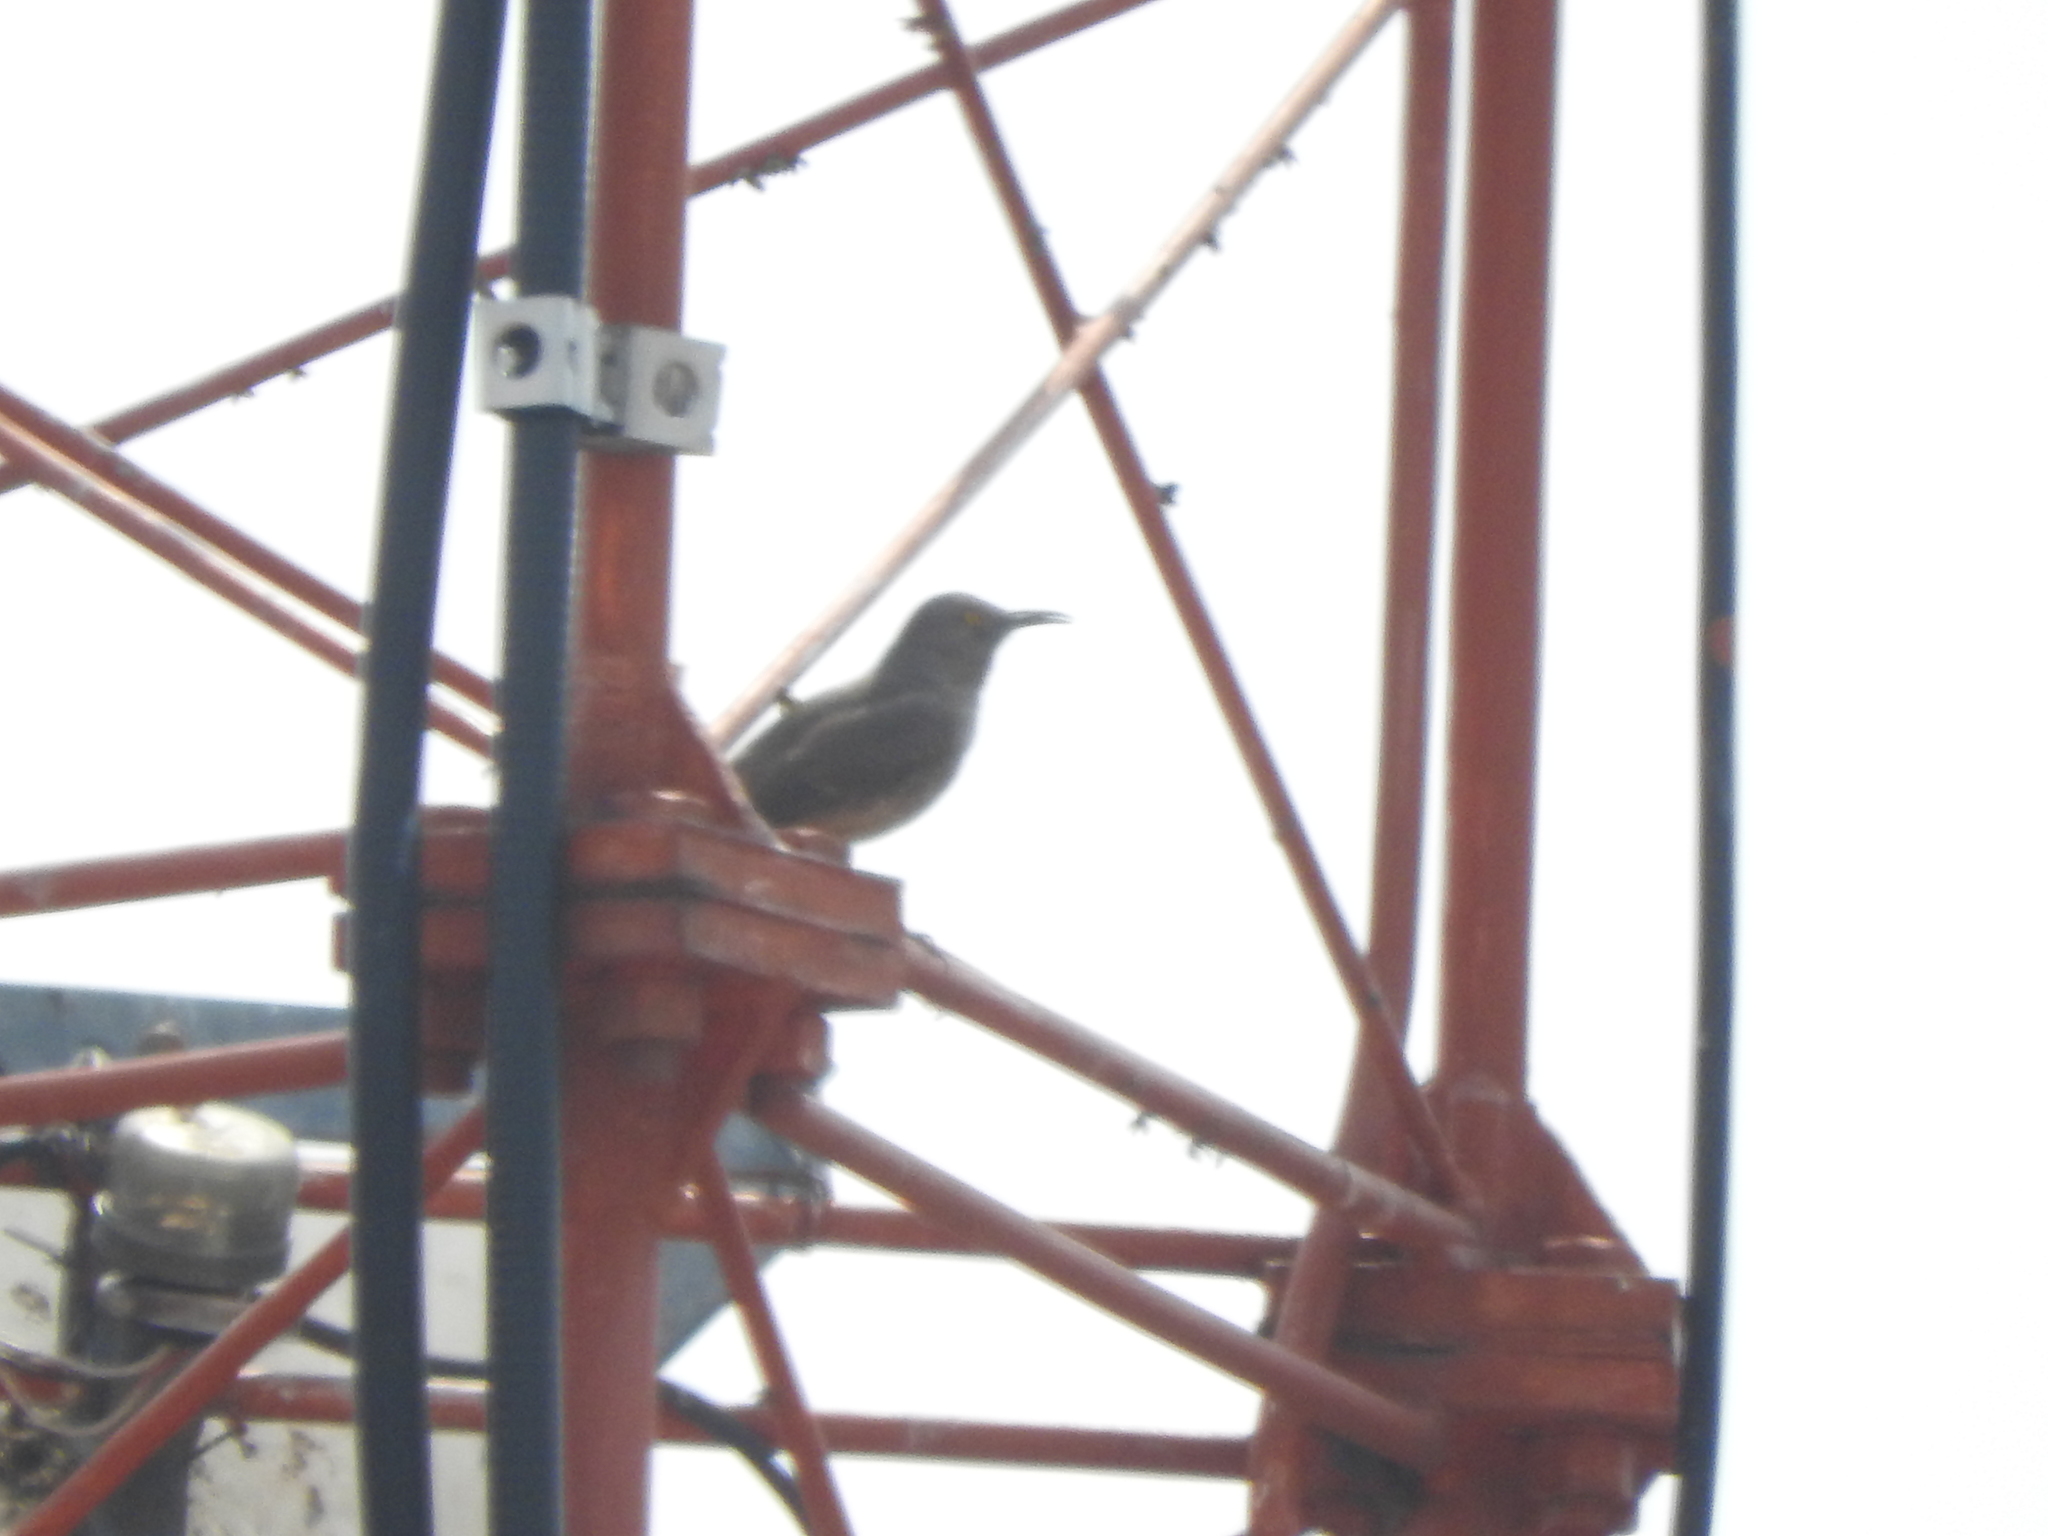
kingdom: Animalia
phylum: Chordata
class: Aves
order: Passeriformes
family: Mimidae
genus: Toxostoma
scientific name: Toxostoma curvirostre
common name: Curve-billed thrasher
